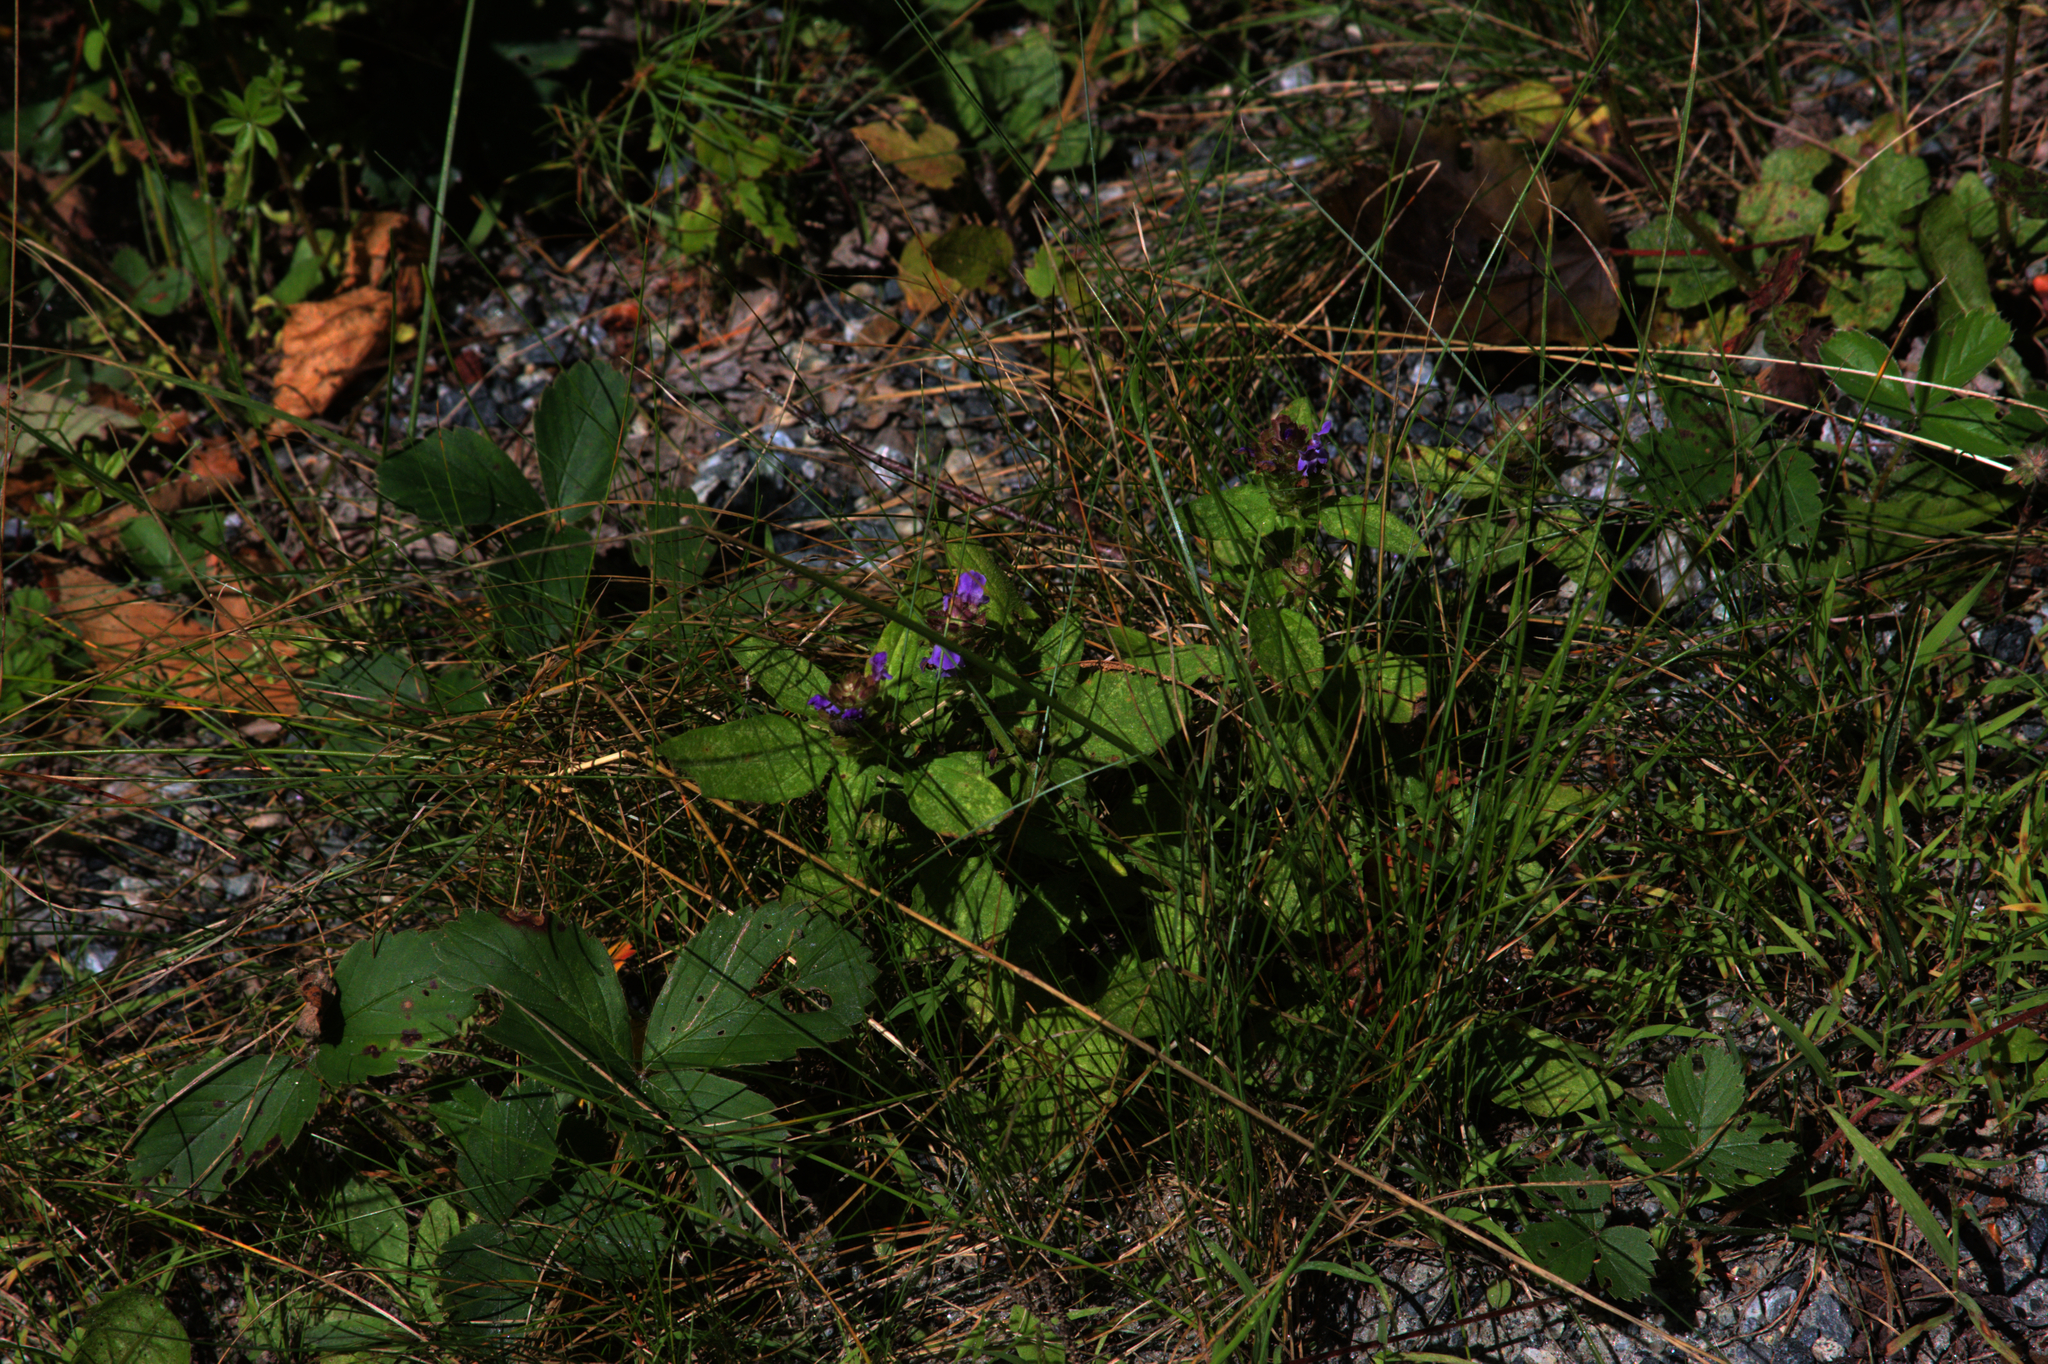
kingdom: Plantae
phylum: Tracheophyta
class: Magnoliopsida
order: Lamiales
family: Lamiaceae
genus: Prunella
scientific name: Prunella vulgaris
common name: Heal-all
